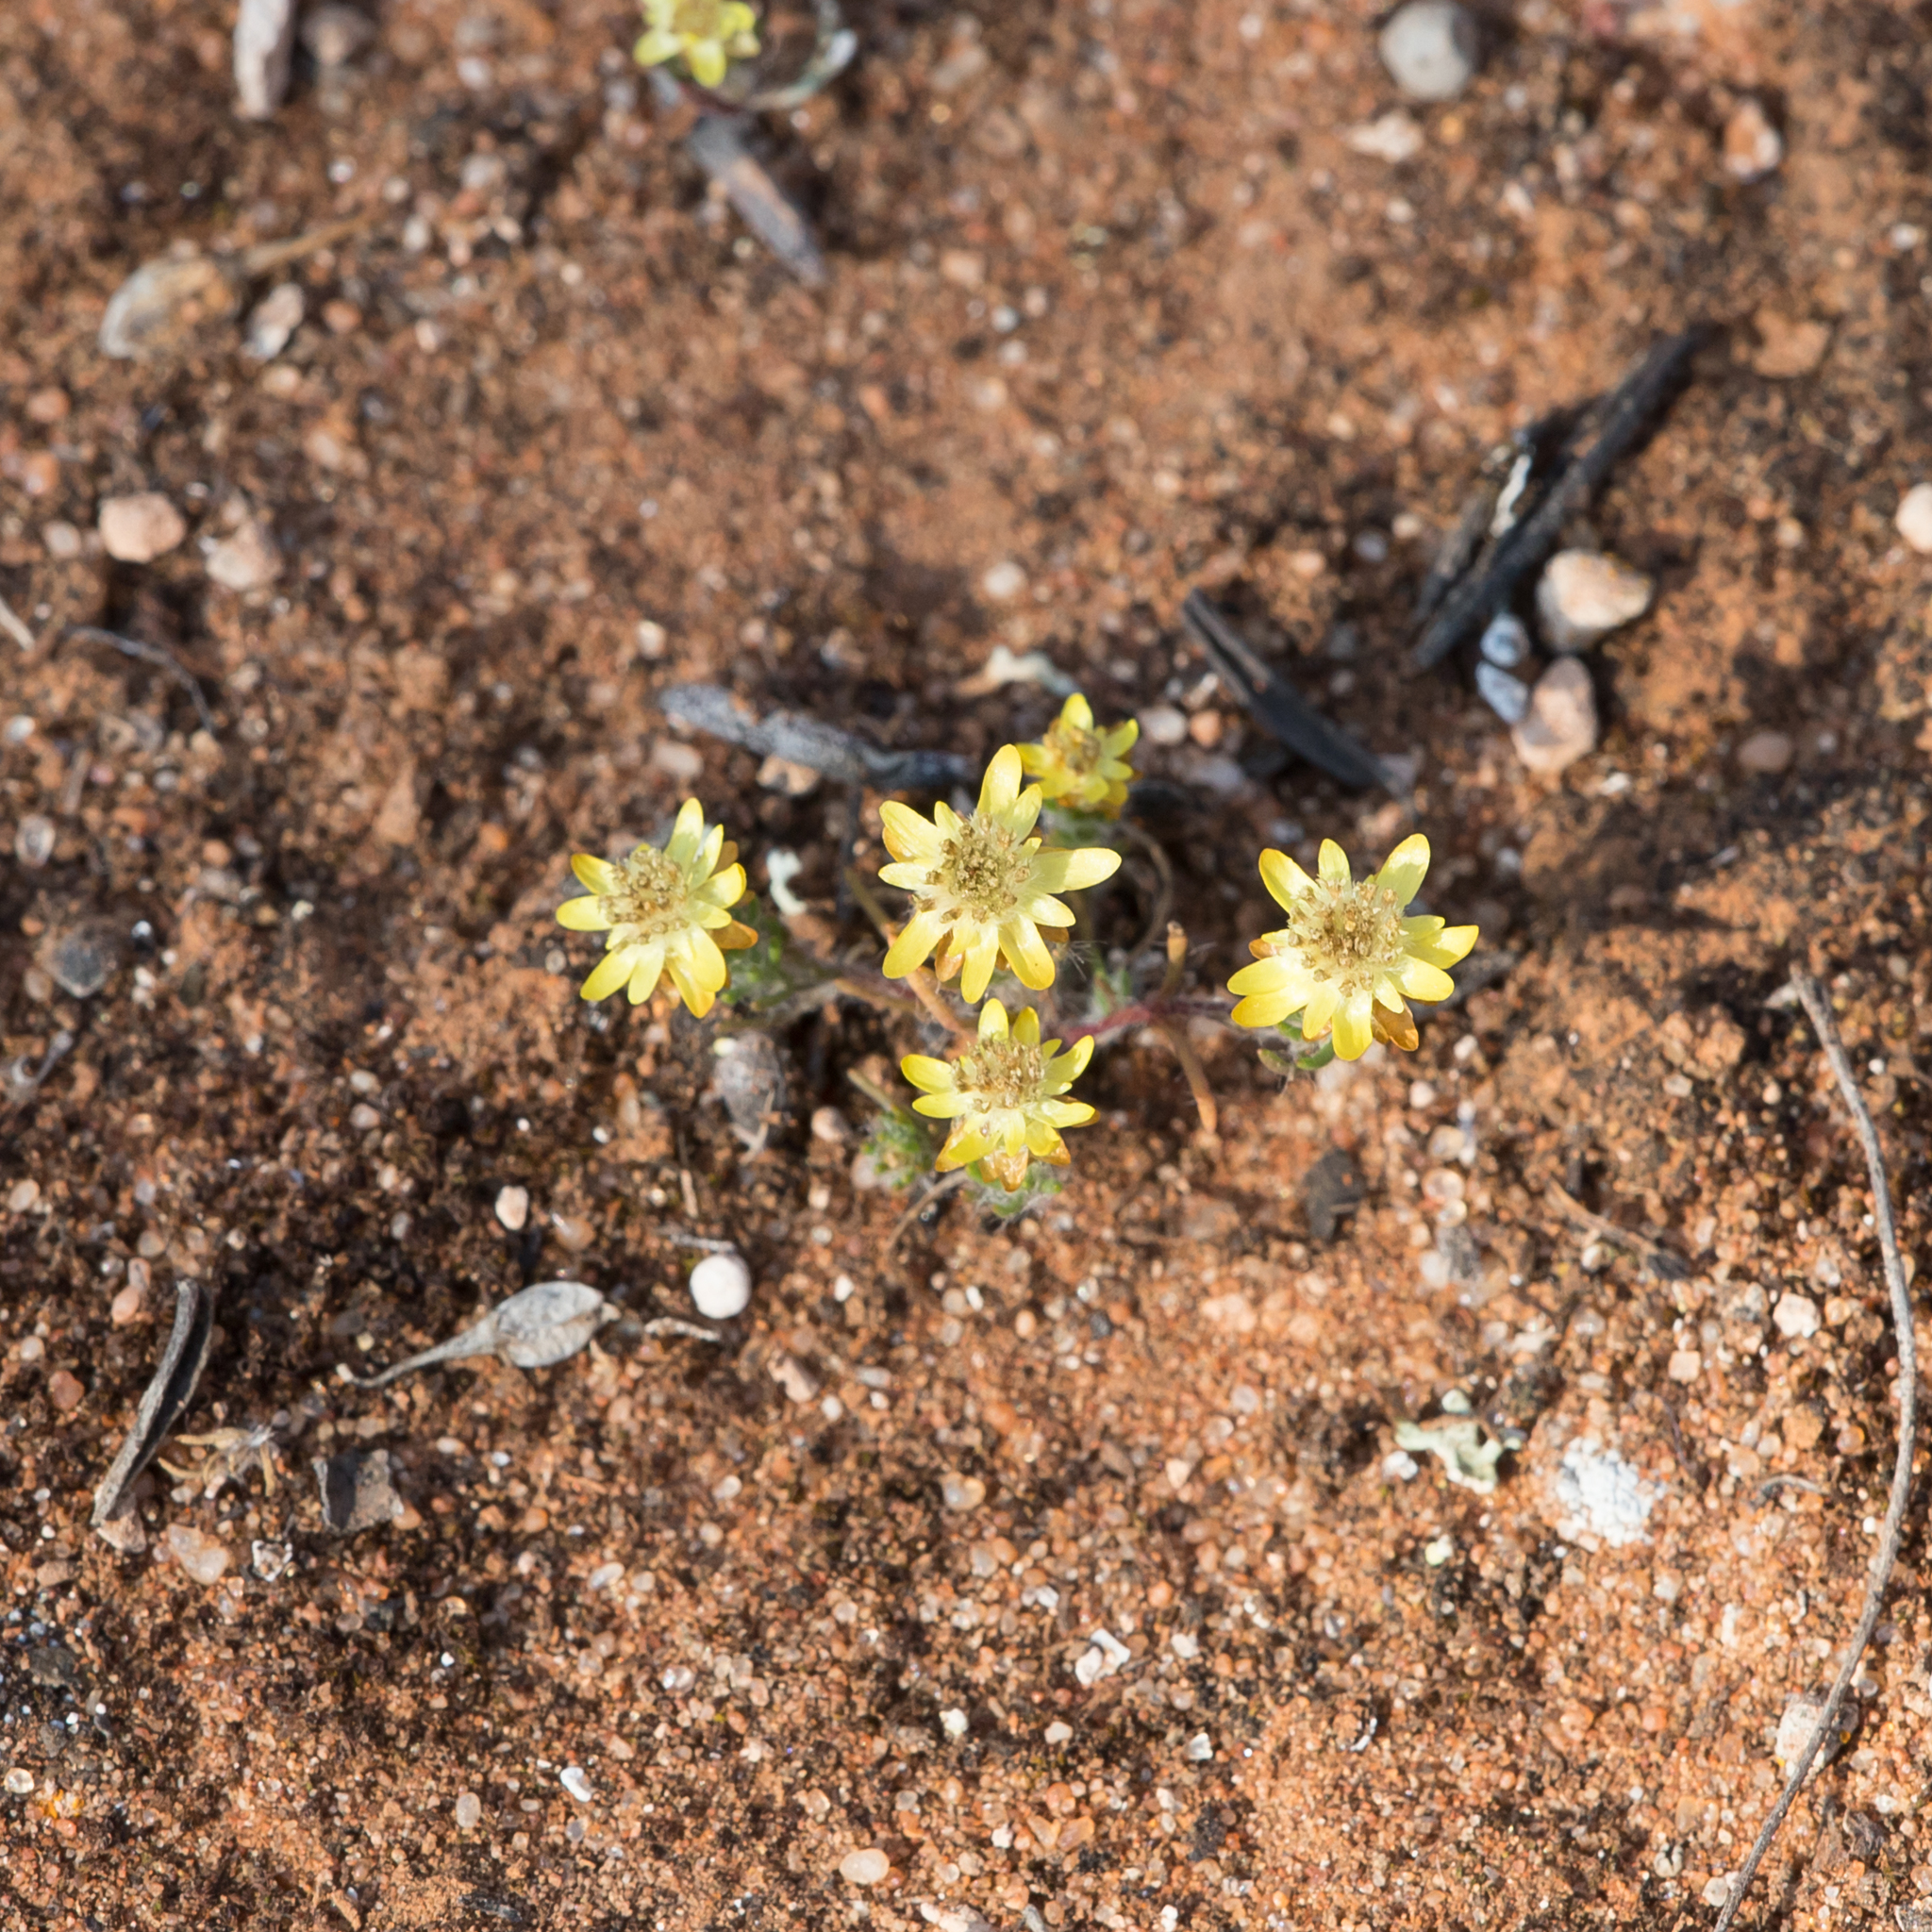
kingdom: Plantae
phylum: Tracheophyta
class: Magnoliopsida
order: Asterales
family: Asteraceae
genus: Hyalosperma
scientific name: Hyalosperma semisterile
